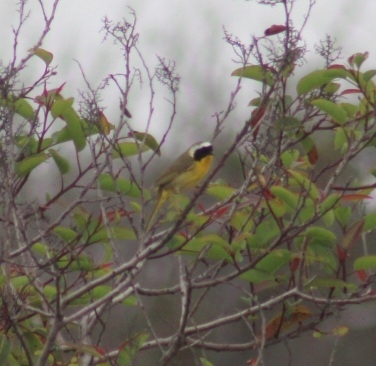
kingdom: Animalia
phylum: Chordata
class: Aves
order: Passeriformes
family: Parulidae
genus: Geothlypis
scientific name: Geothlypis trichas
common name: Common yellowthroat
